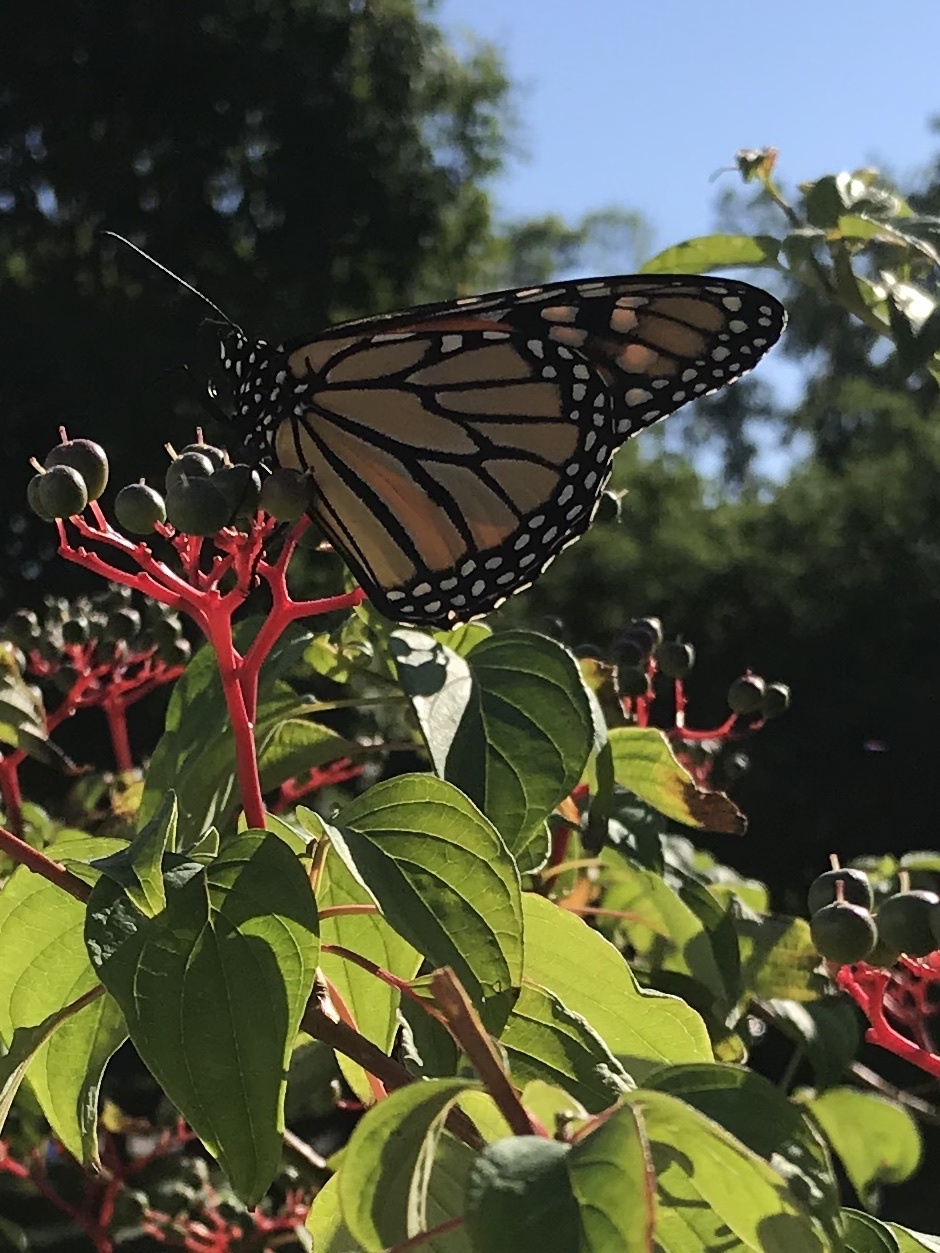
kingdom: Animalia
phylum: Arthropoda
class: Insecta
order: Lepidoptera
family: Nymphalidae
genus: Danaus
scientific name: Danaus plexippus
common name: Monarch
